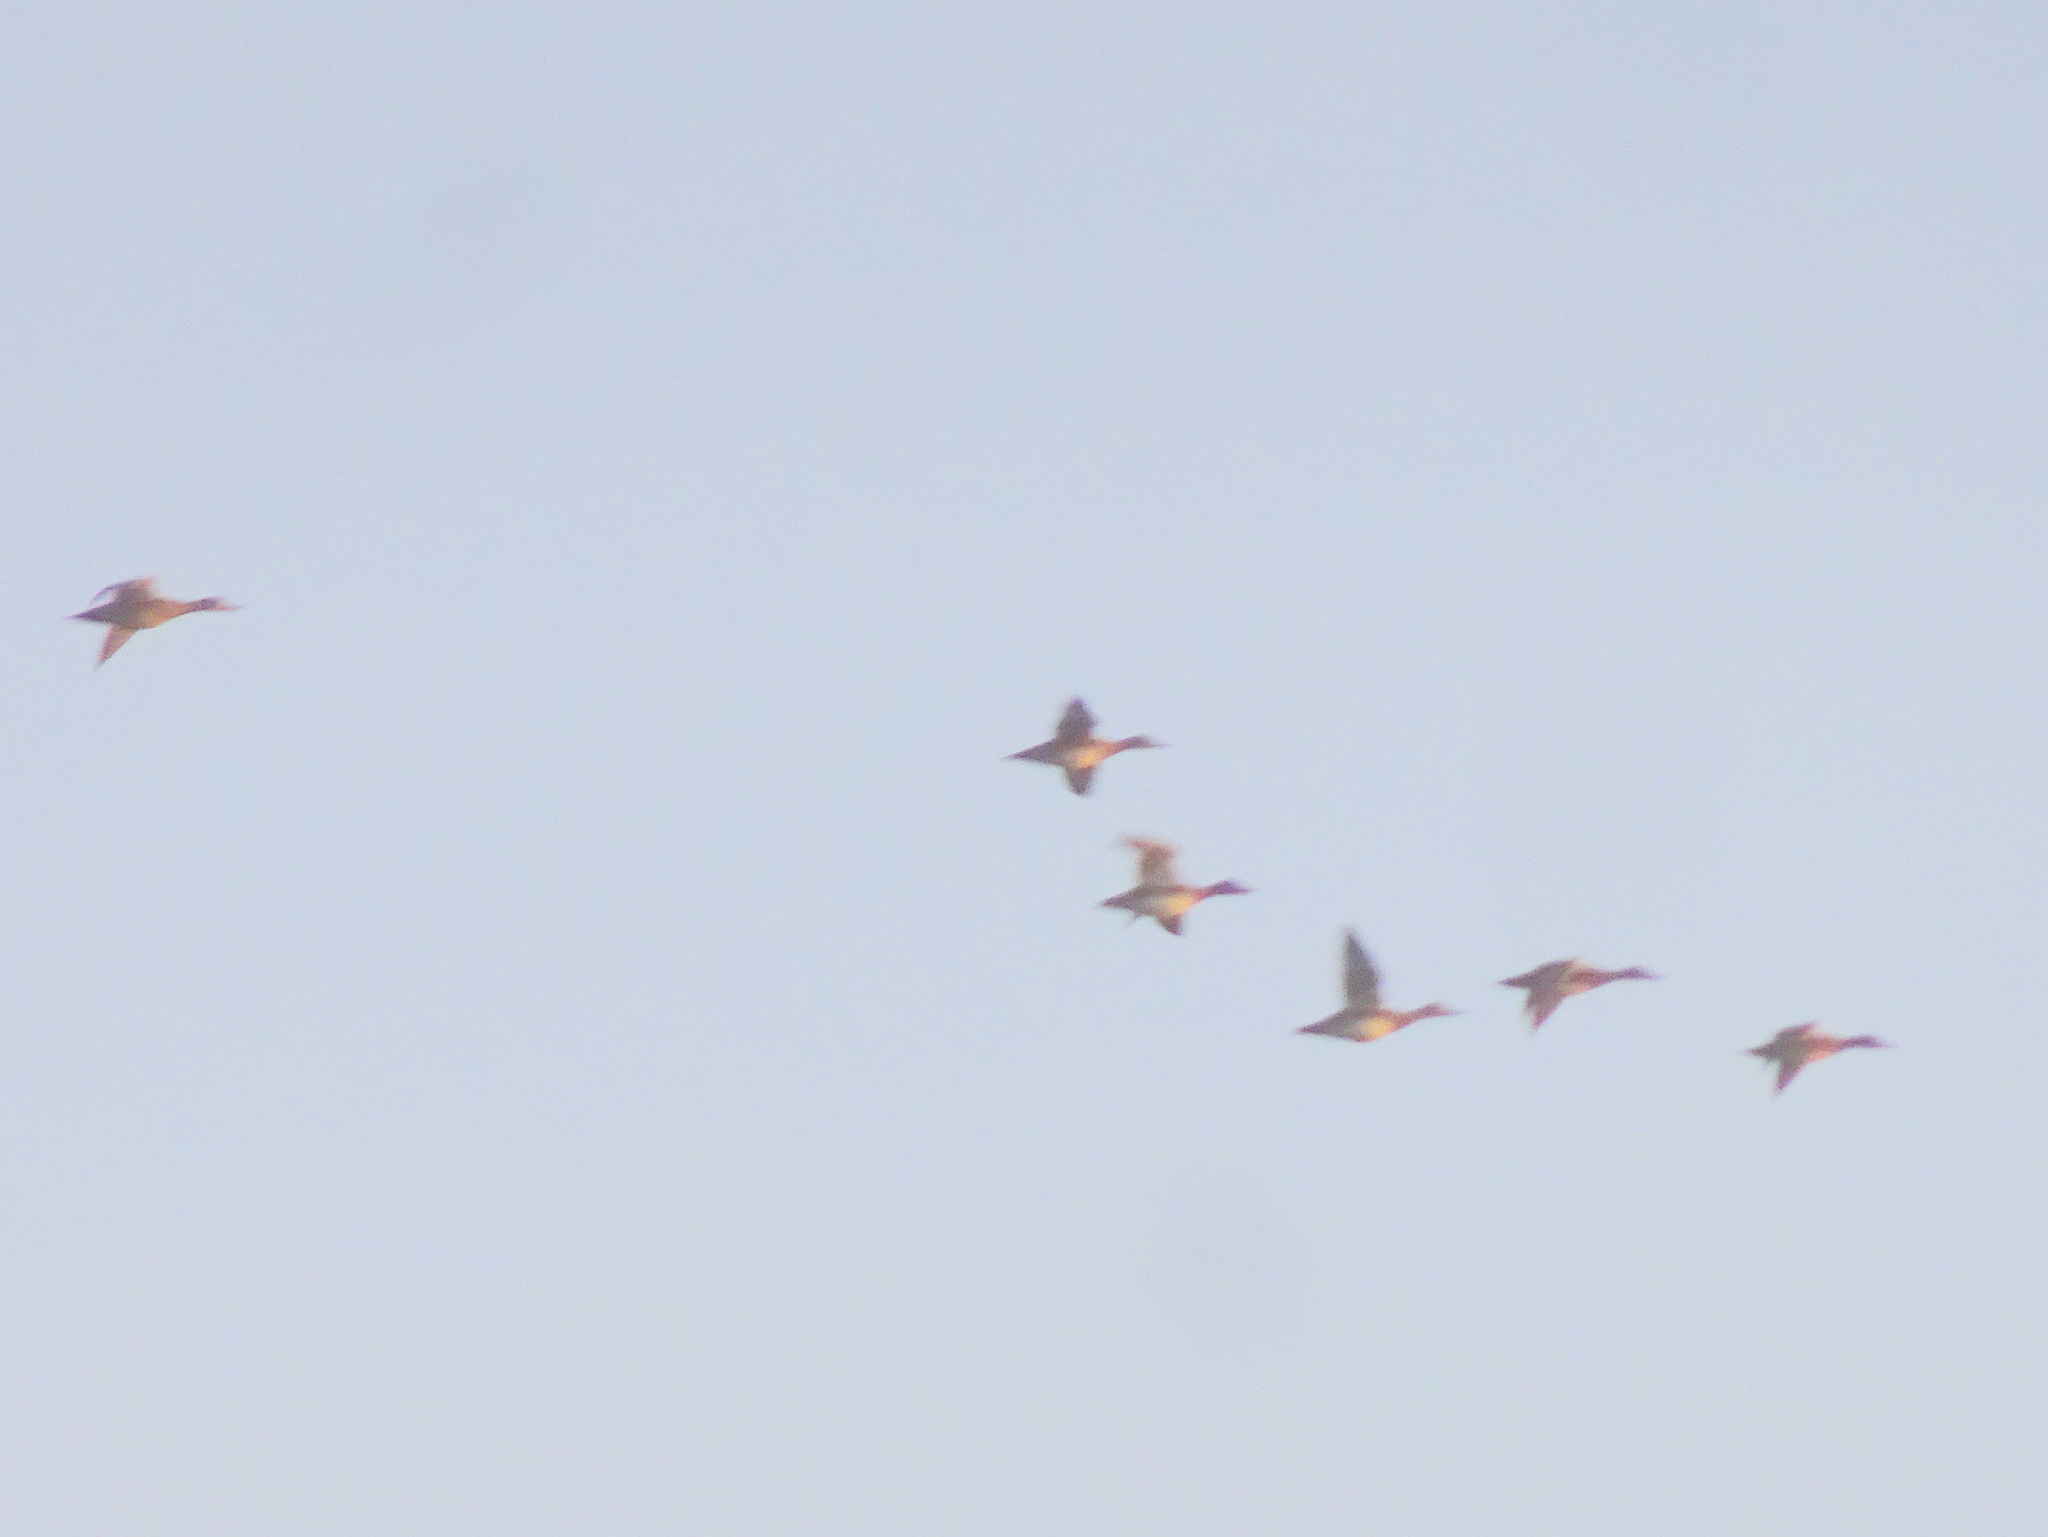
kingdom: Animalia
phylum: Chordata
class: Aves
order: Anseriformes
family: Anatidae
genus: Mareca
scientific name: Mareca strepera
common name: Gadwall
